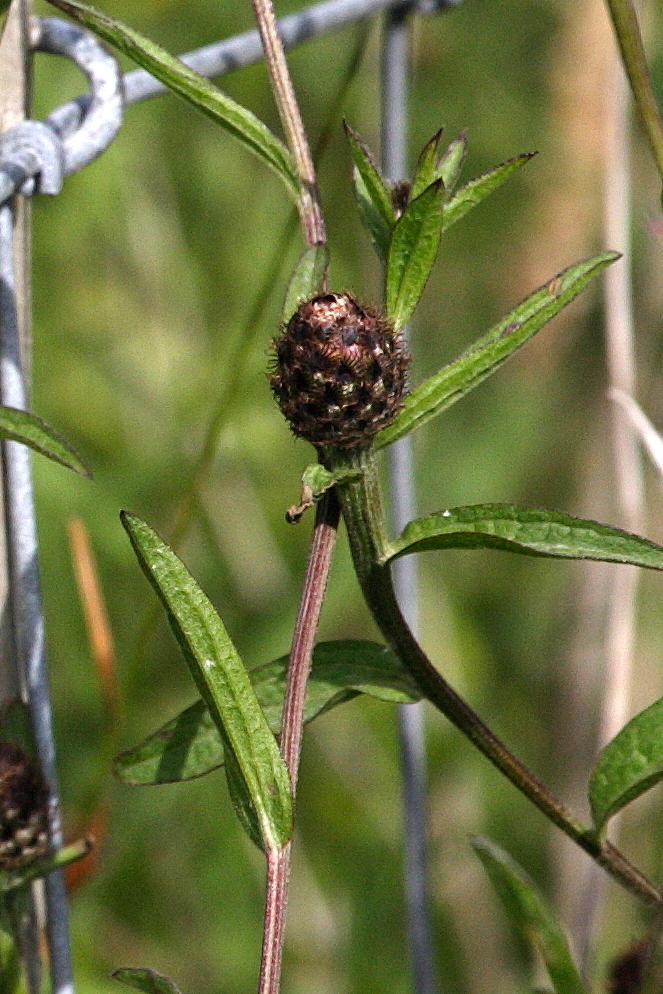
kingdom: Plantae
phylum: Tracheophyta
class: Magnoliopsida
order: Asterales
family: Asteraceae
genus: Centaurea
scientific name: Centaurea nigra
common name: Lesser knapweed
